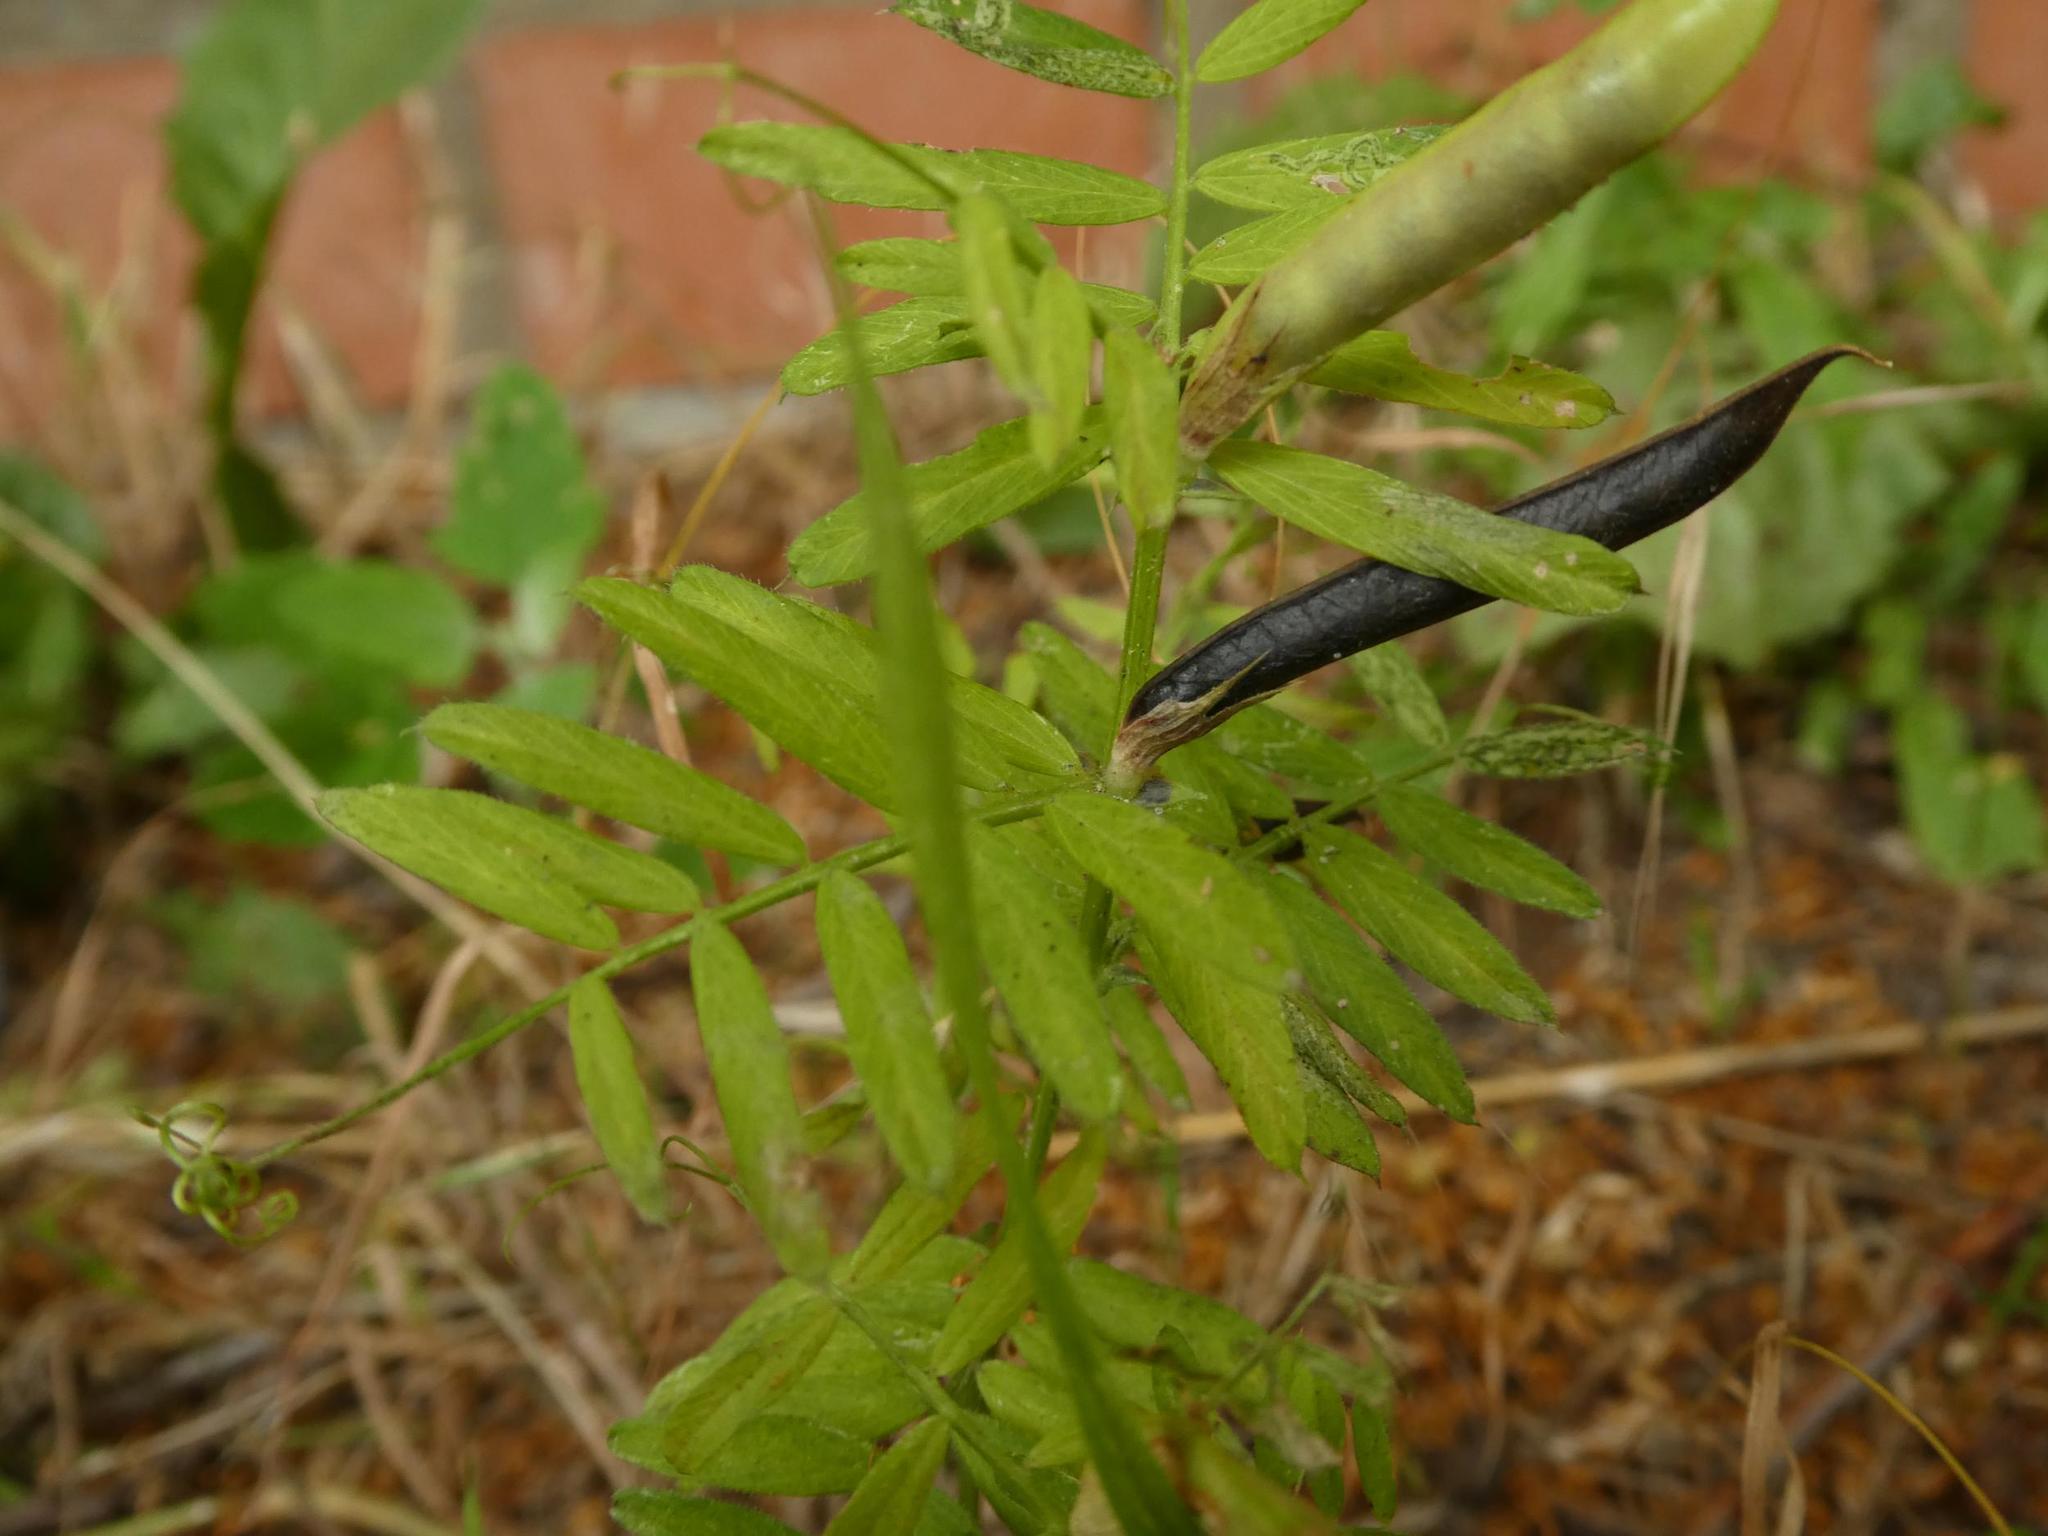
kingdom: Plantae
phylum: Tracheophyta
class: Magnoliopsida
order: Fabales
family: Fabaceae
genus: Vicia
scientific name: Vicia sativa
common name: Garden vetch
